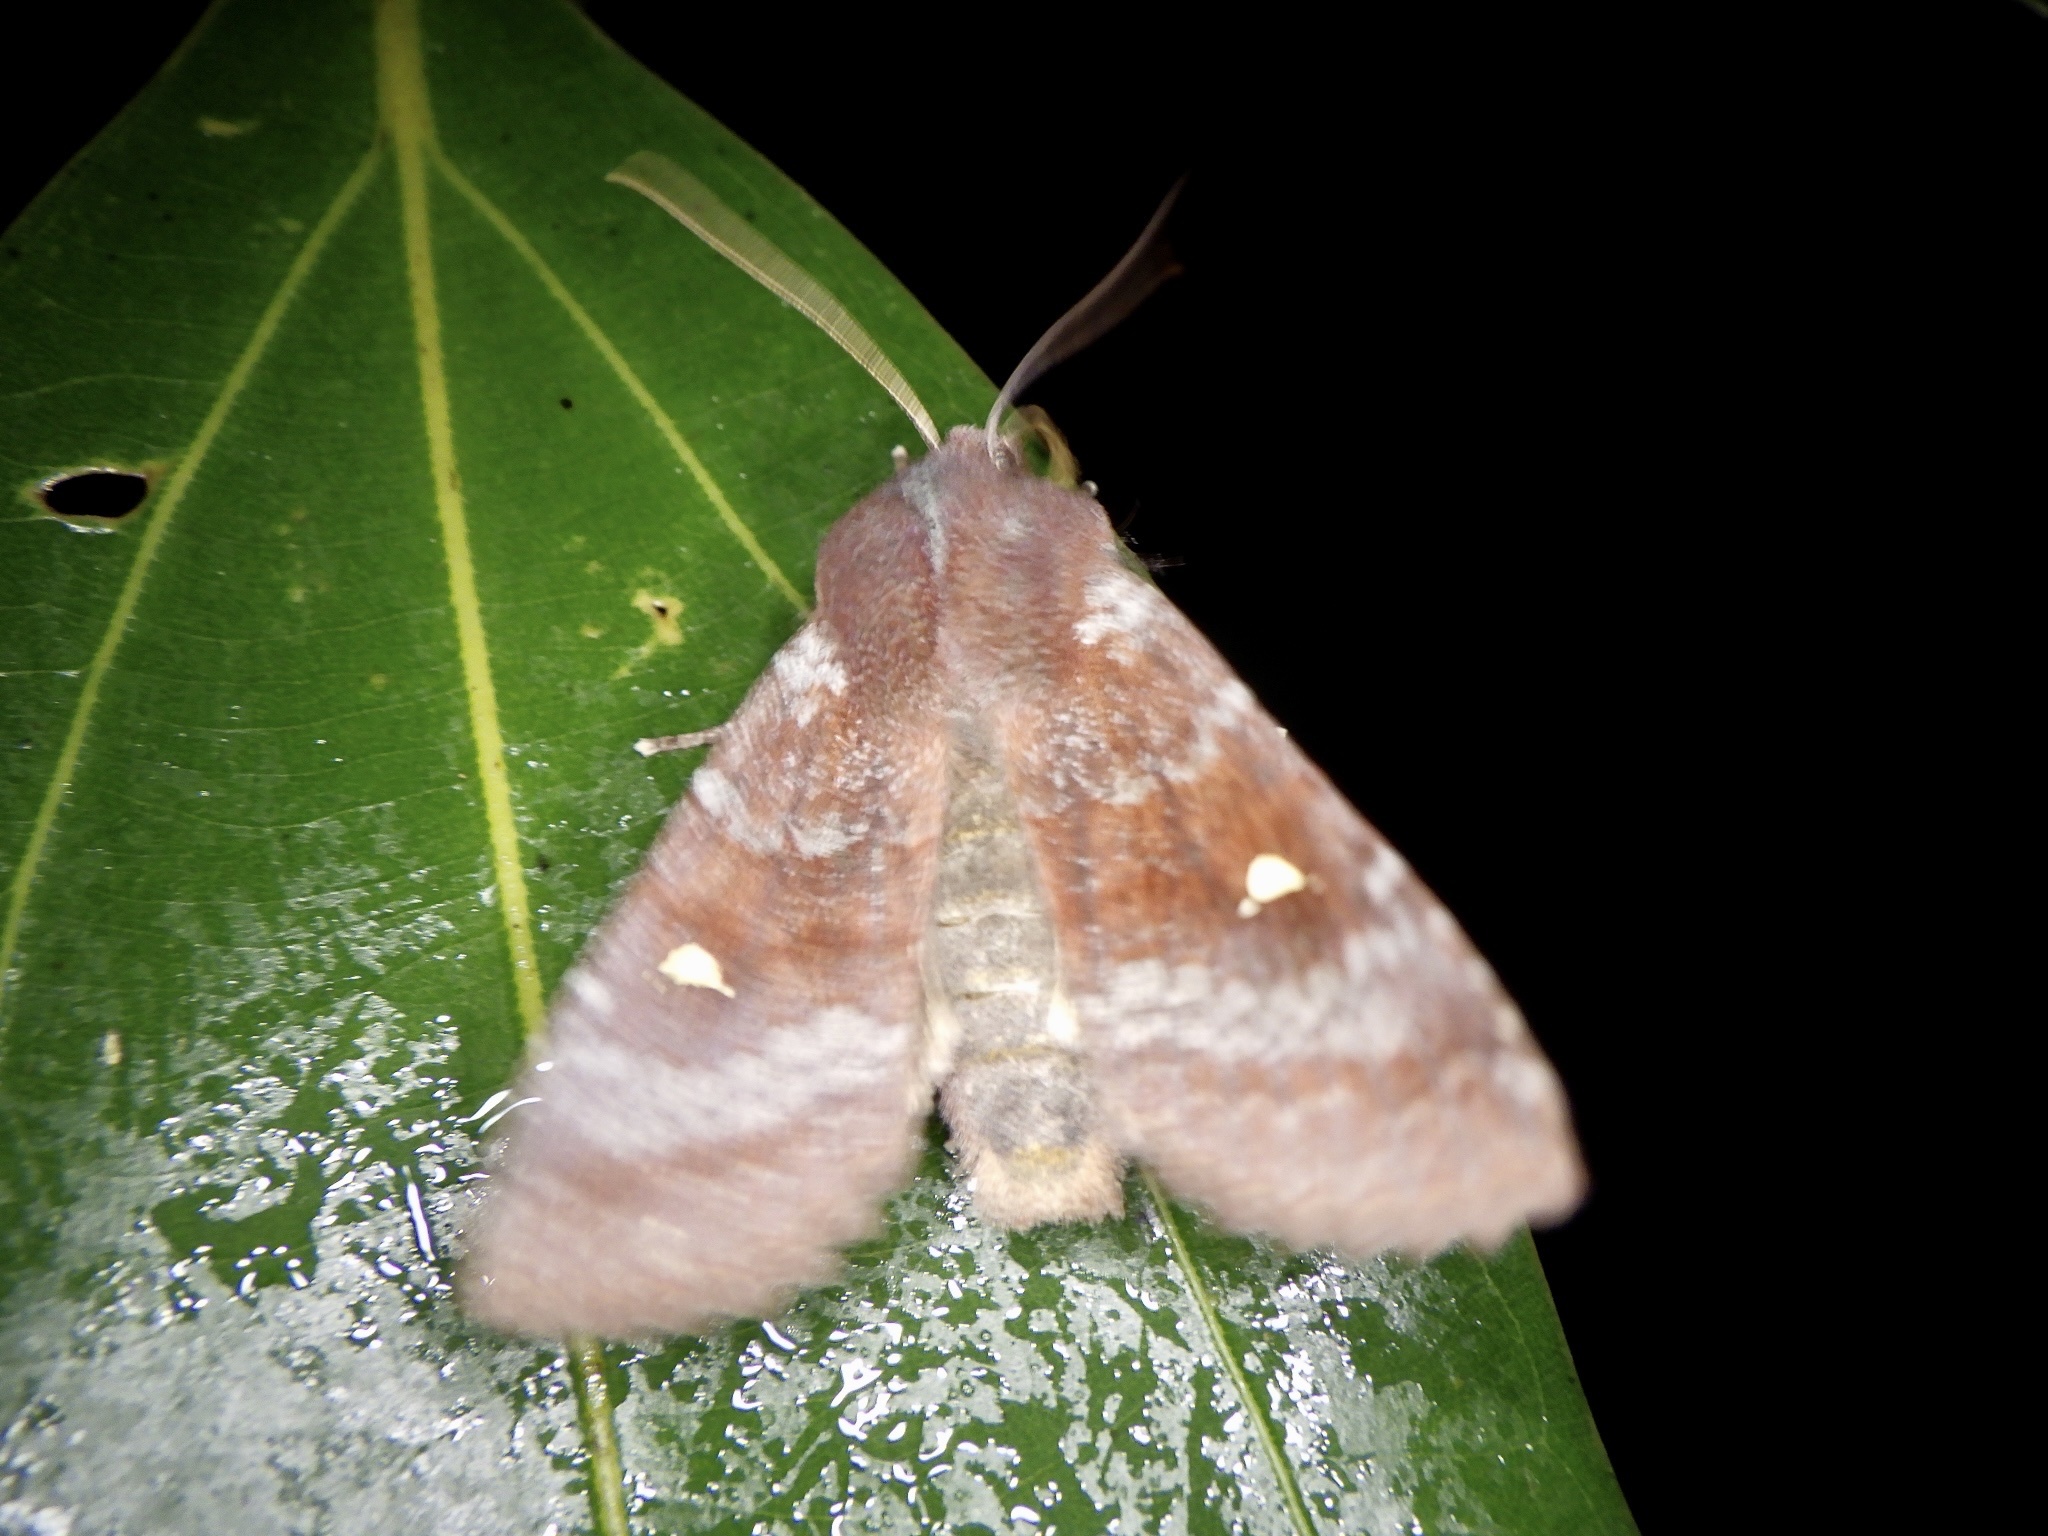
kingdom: Animalia
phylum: Arthropoda
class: Insecta
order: Lepidoptera
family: Noctuidae
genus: Eupsilia
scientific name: Eupsilia unipuncta
